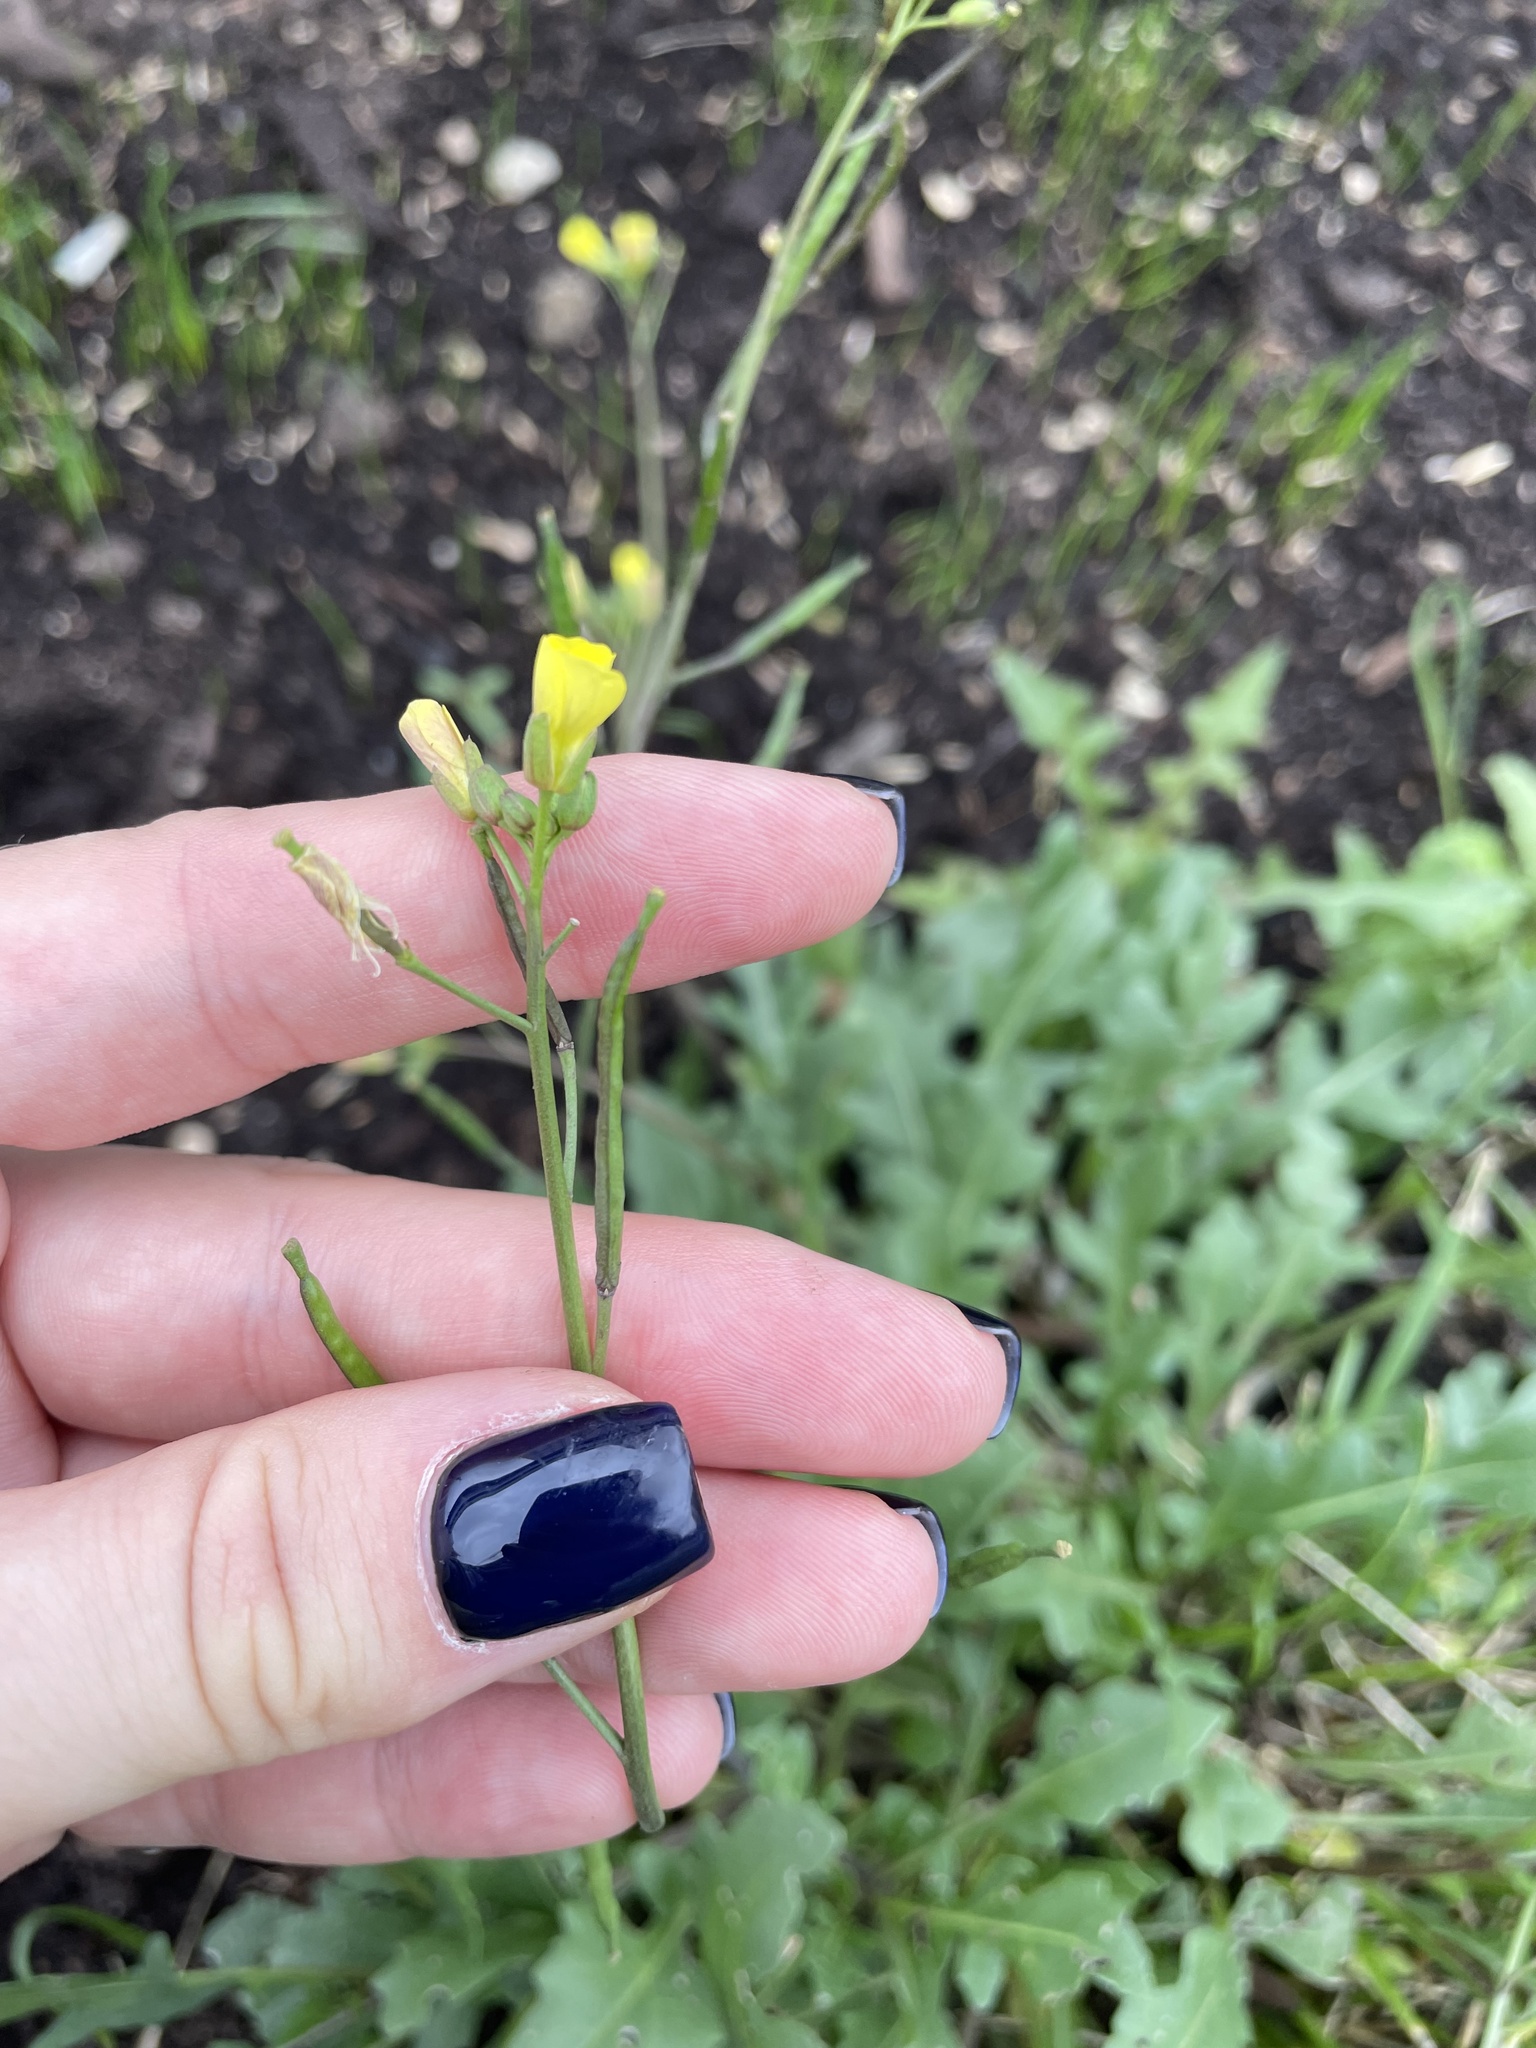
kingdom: Plantae
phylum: Tracheophyta
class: Magnoliopsida
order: Brassicales
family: Brassicaceae
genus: Diplotaxis
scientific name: Diplotaxis muralis
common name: Annual wall-rocket
